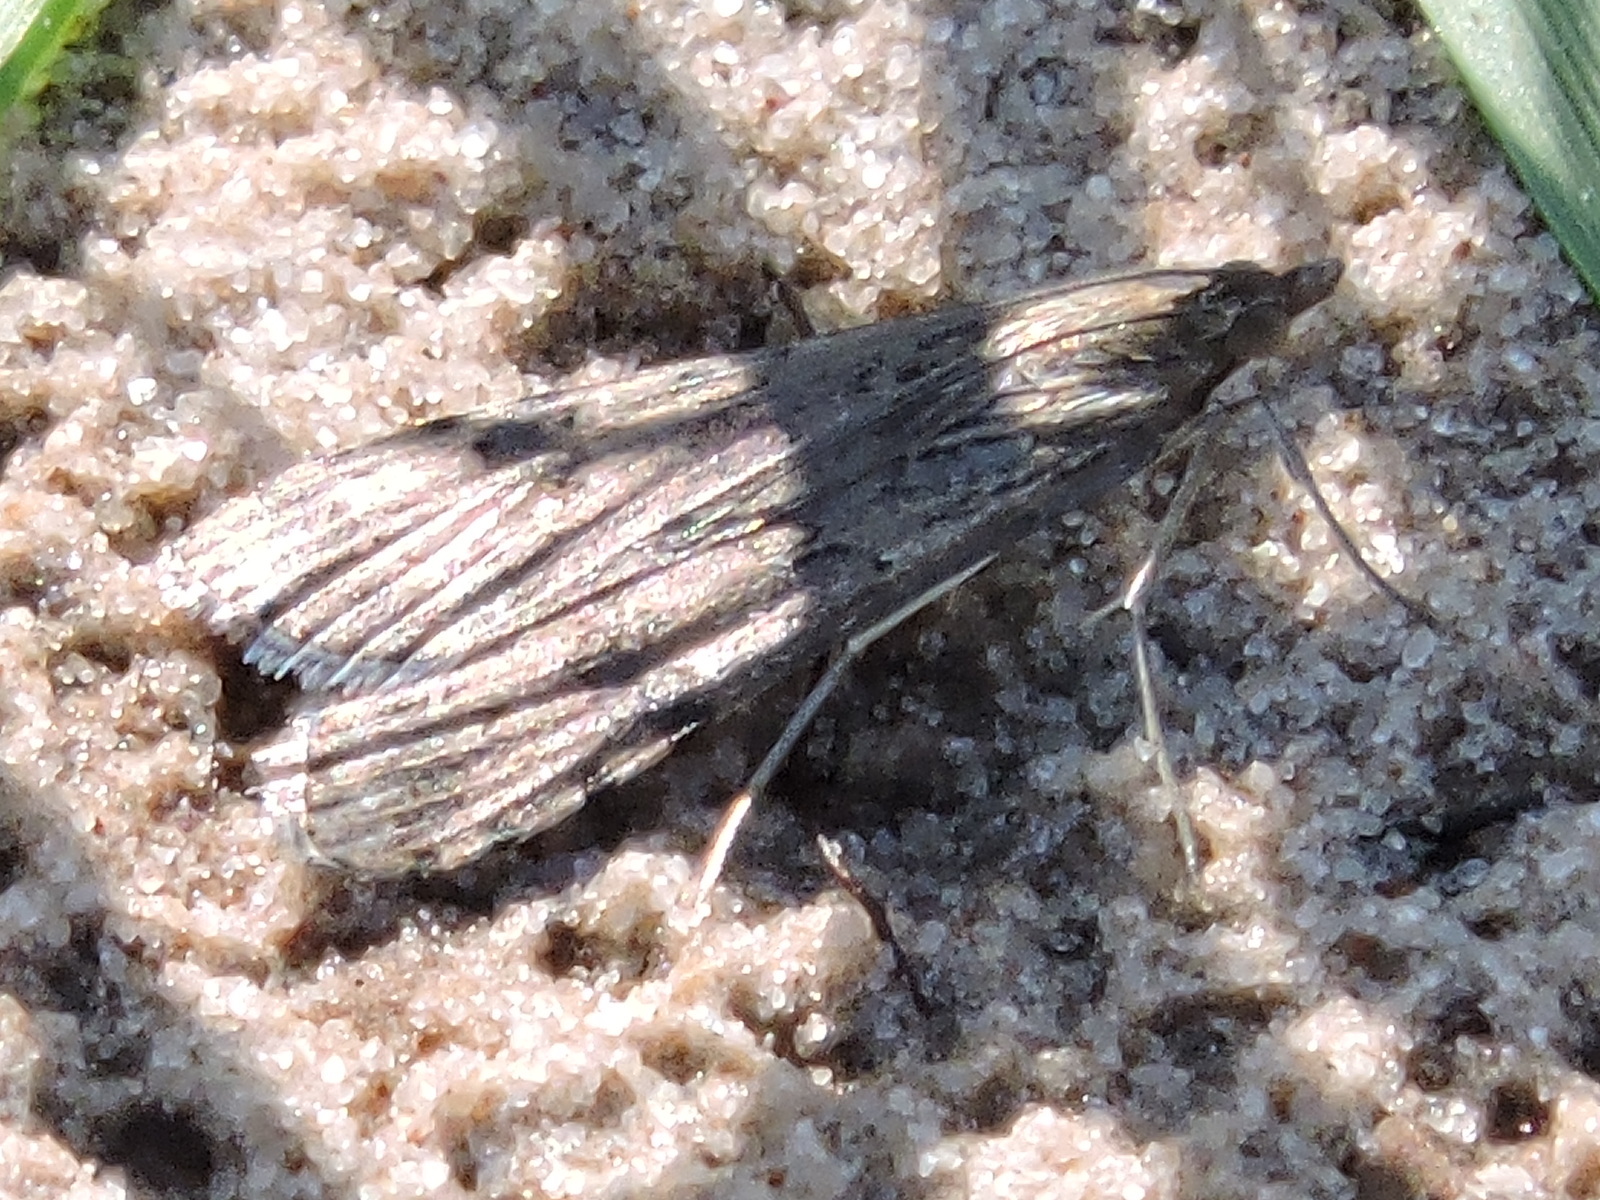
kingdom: Animalia
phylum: Arthropoda
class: Insecta
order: Lepidoptera
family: Crambidae
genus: Nomophila
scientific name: Nomophila nearctica
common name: American rush veneer
